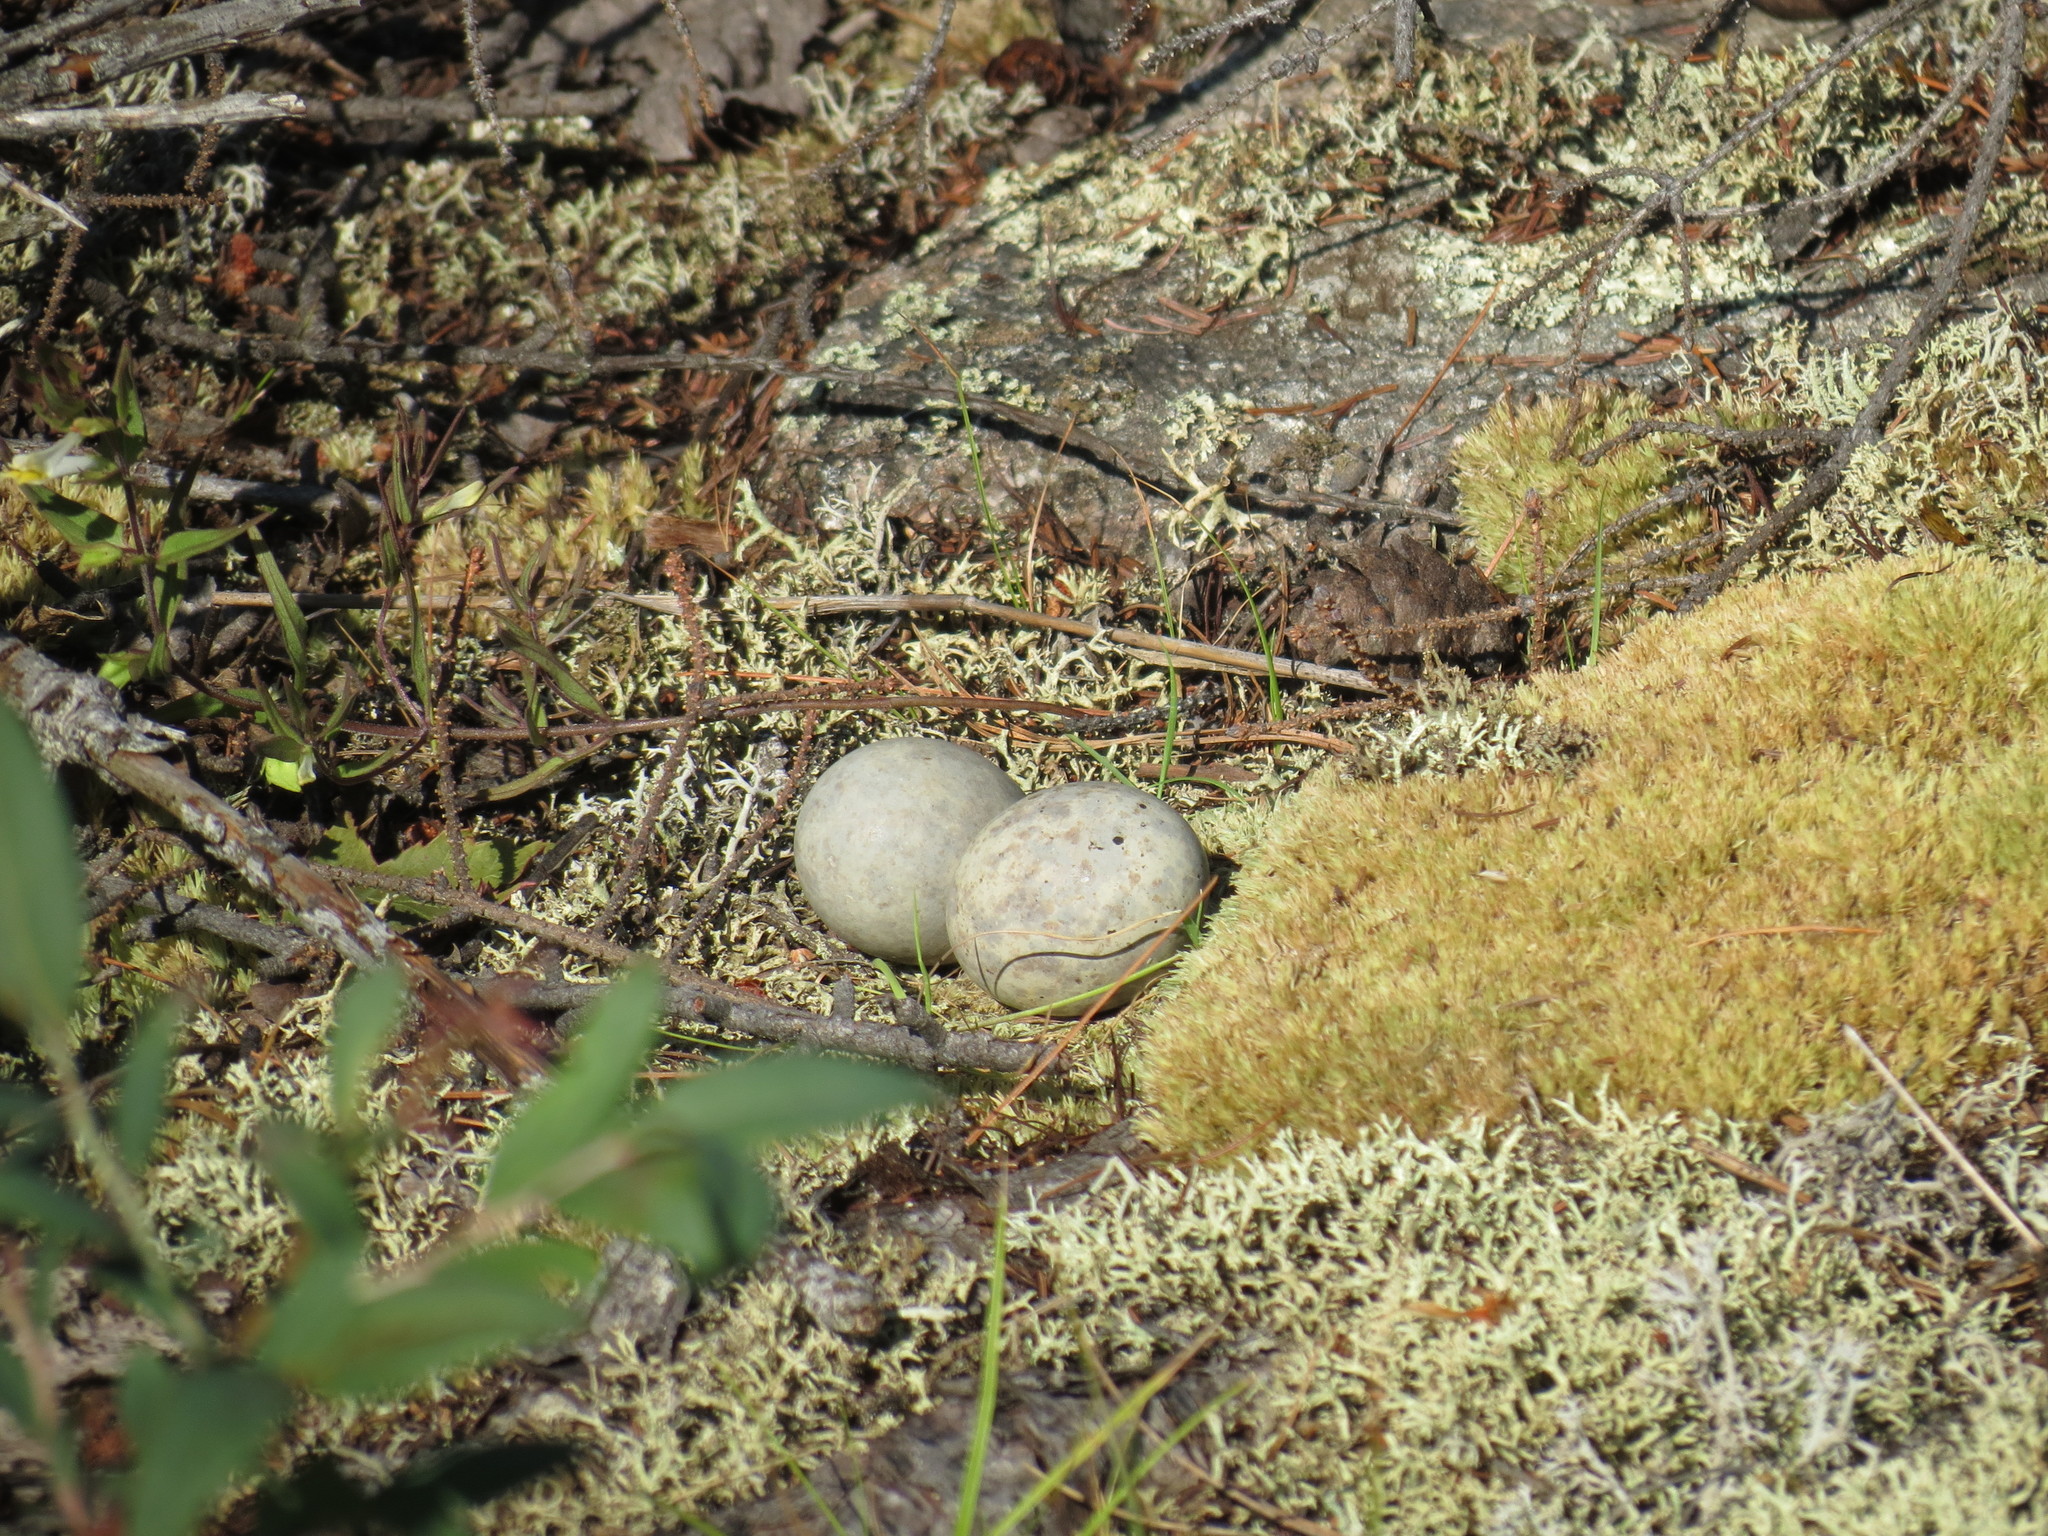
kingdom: Animalia
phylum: Chordata
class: Aves
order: Caprimulgiformes
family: Caprimulgidae
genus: Chordeiles
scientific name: Chordeiles minor
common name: Common nighthawk
